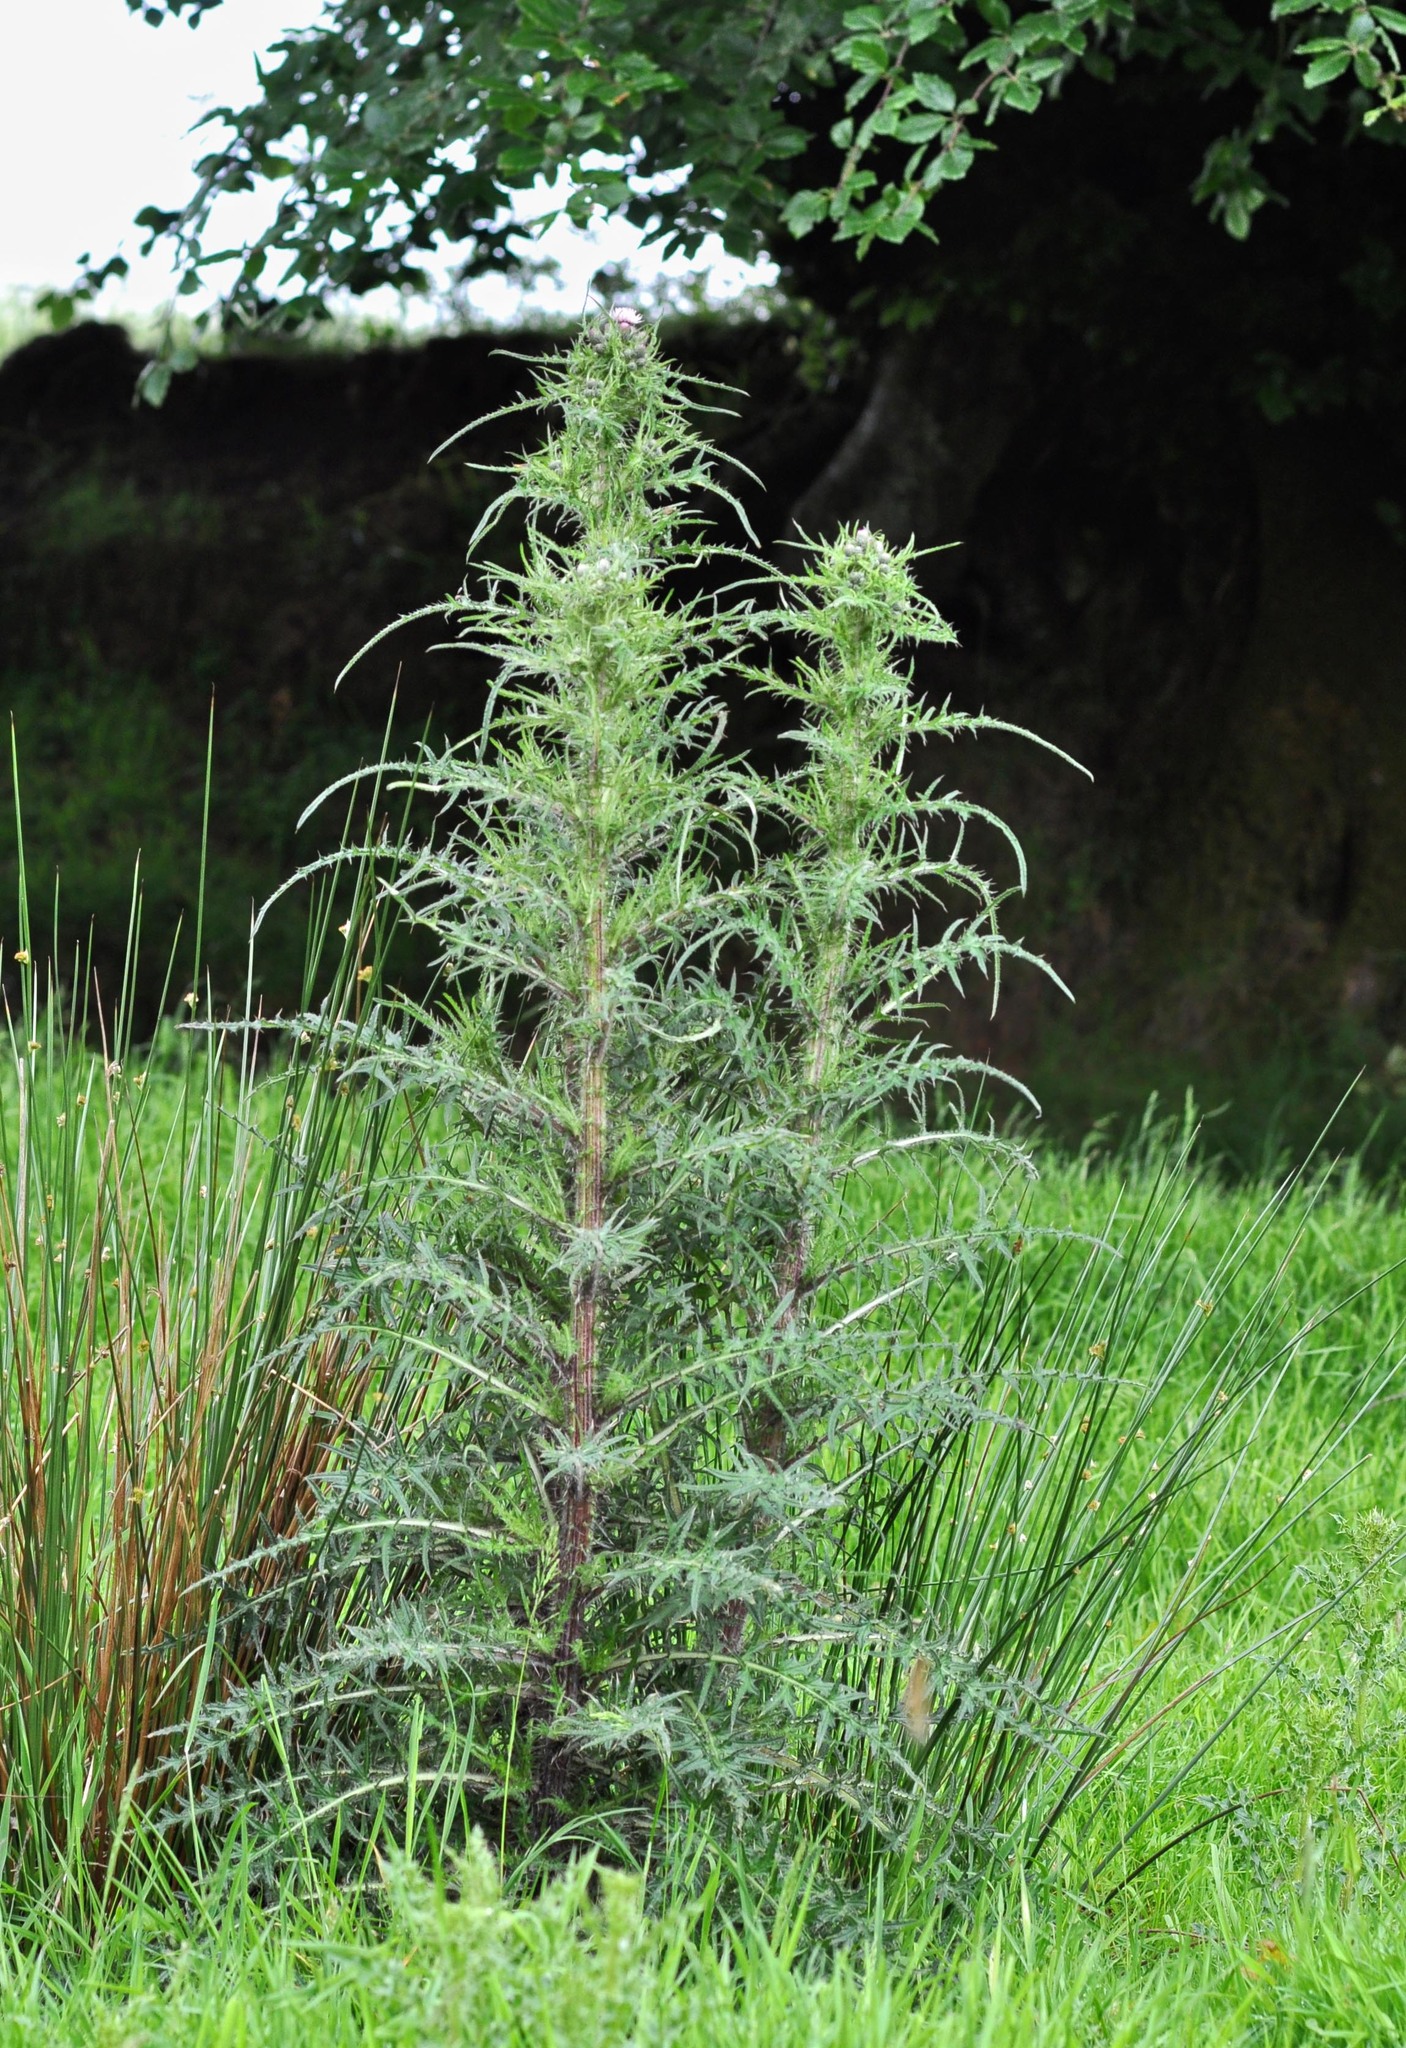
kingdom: Plantae
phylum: Tracheophyta
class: Magnoliopsida
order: Asterales
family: Asteraceae
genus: Cirsium
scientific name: Cirsium palustre
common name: Marsh thistle
